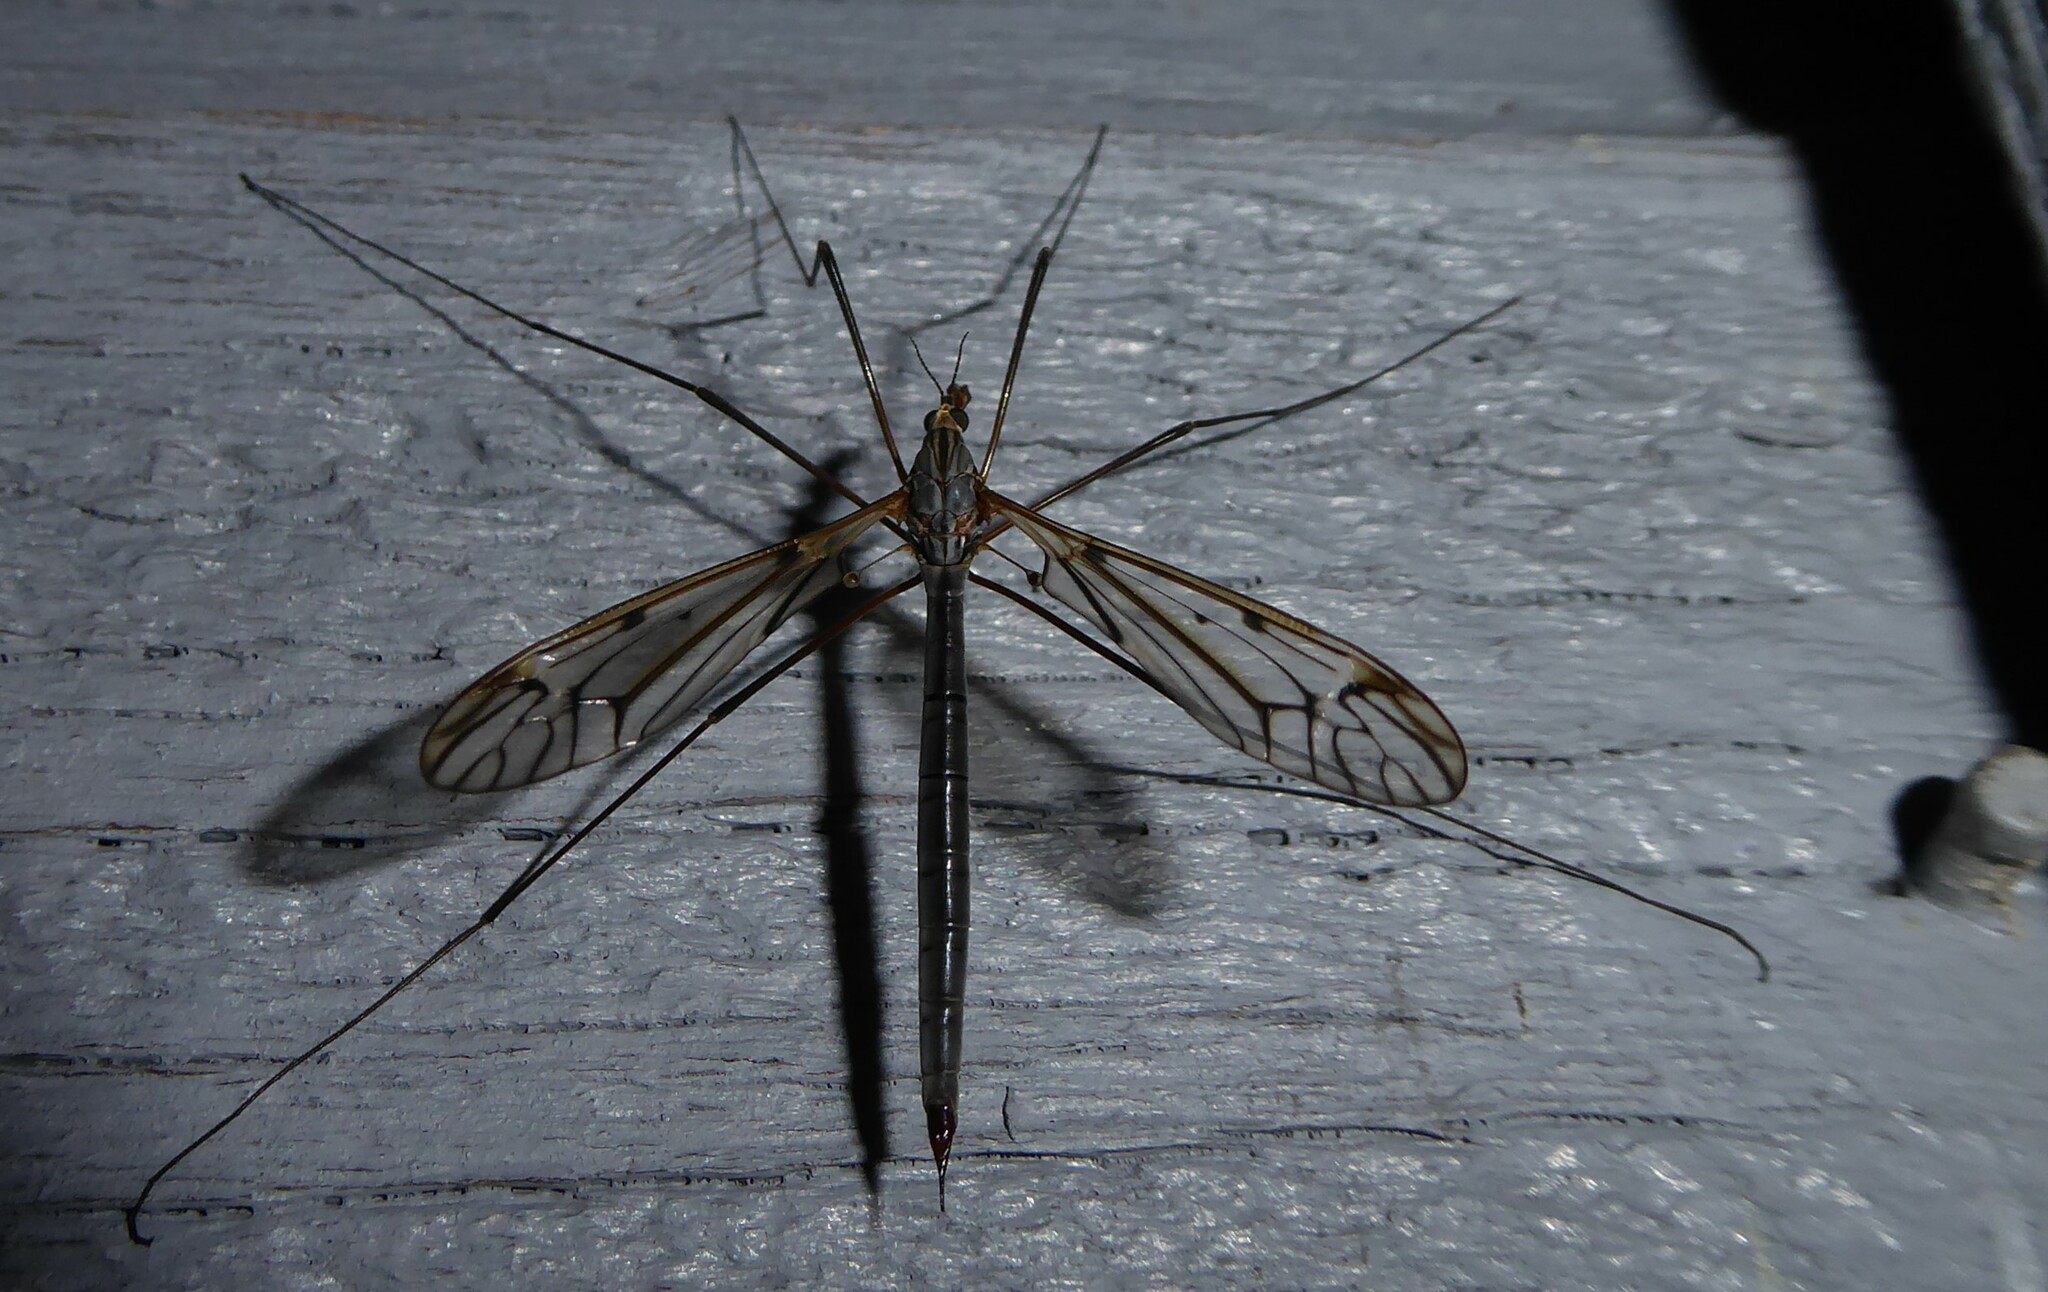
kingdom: Animalia
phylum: Arthropoda
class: Insecta
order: Diptera
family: Tipulidae
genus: Zelandotipula
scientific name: Zelandotipula novarae
